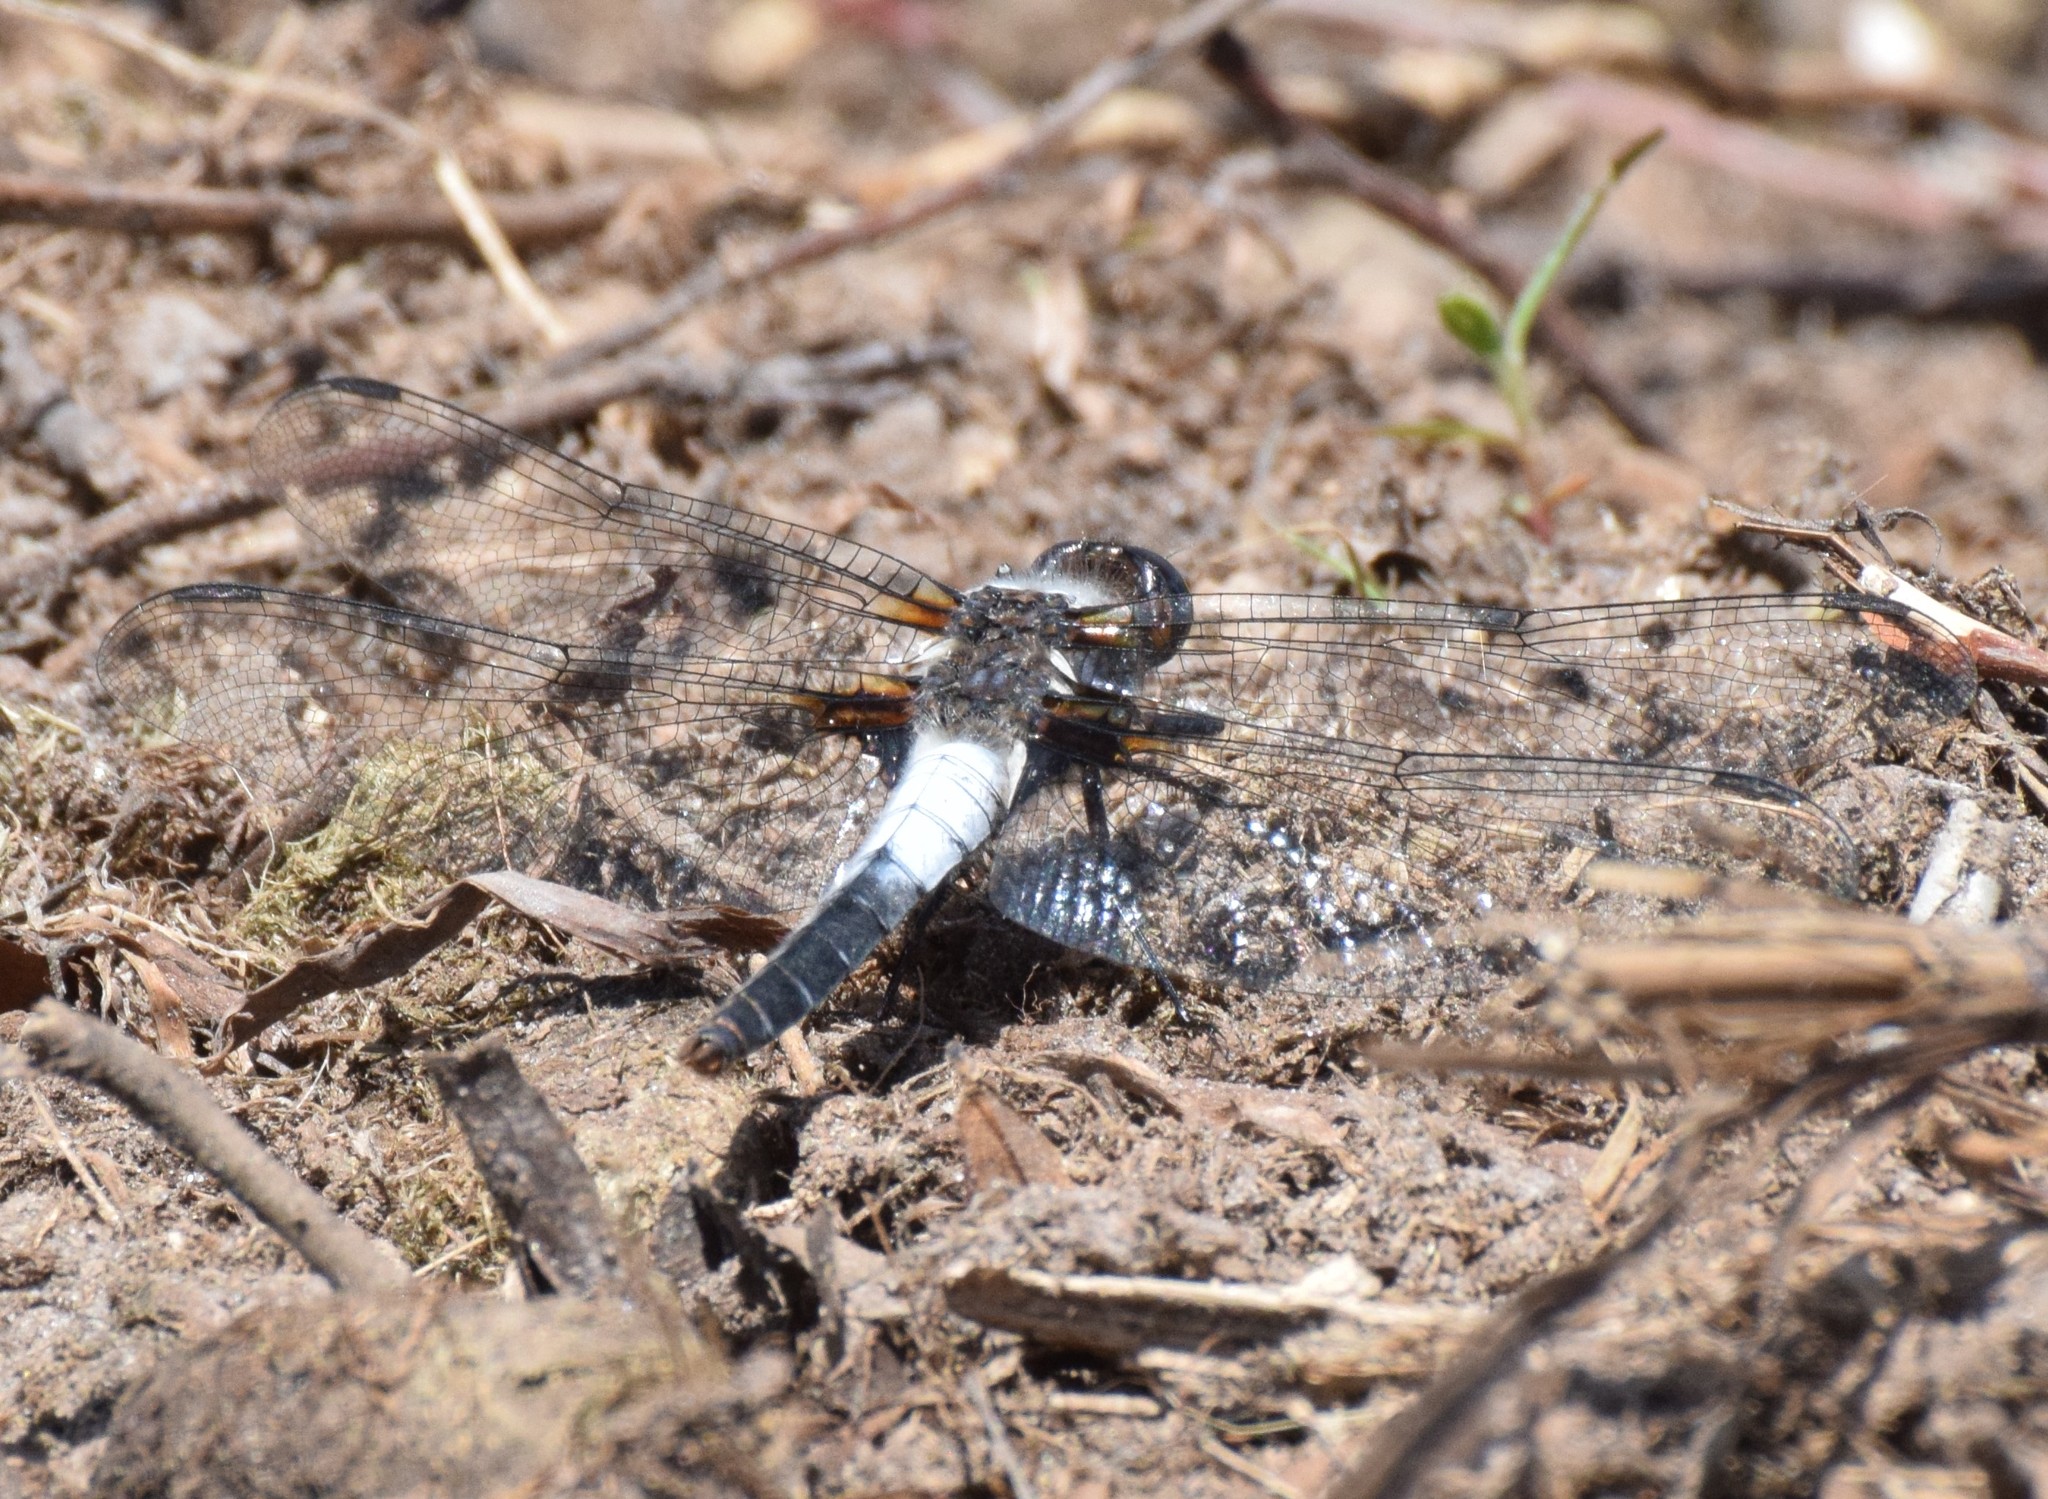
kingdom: Animalia
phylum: Arthropoda
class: Insecta
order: Odonata
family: Libellulidae
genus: Ladona
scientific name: Ladona julia
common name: Chalk-fronted corporal
